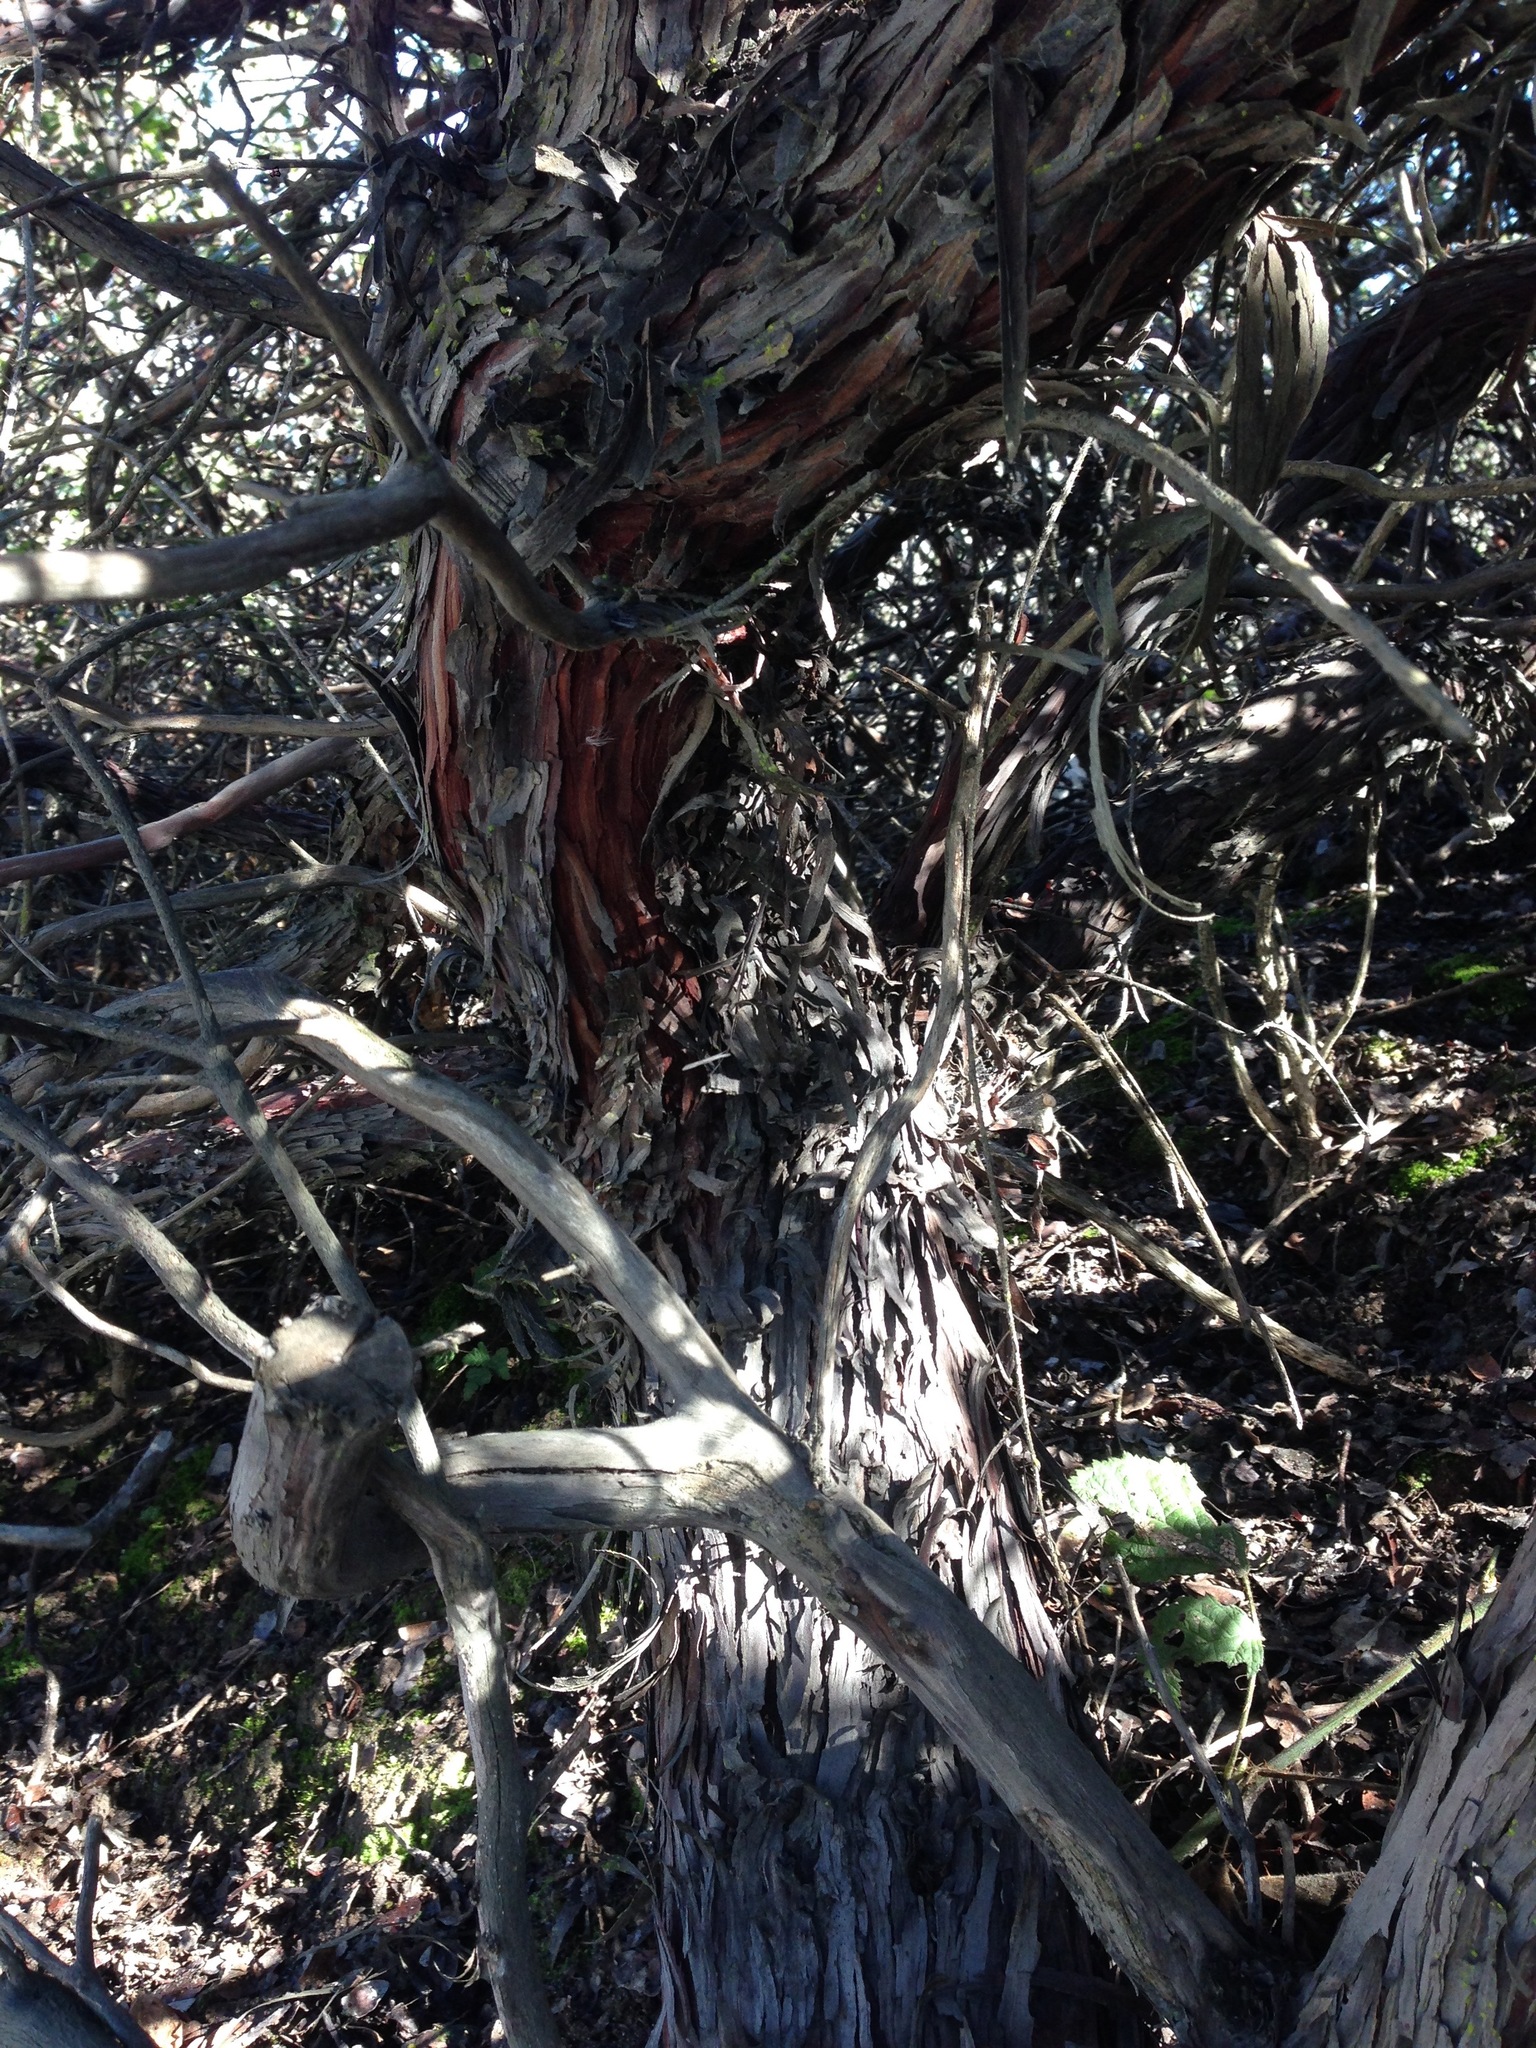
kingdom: Plantae
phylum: Tracheophyta
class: Magnoliopsida
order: Ericales
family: Ericaceae
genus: Arctostaphylos
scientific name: Arctostaphylos pajaroensis
